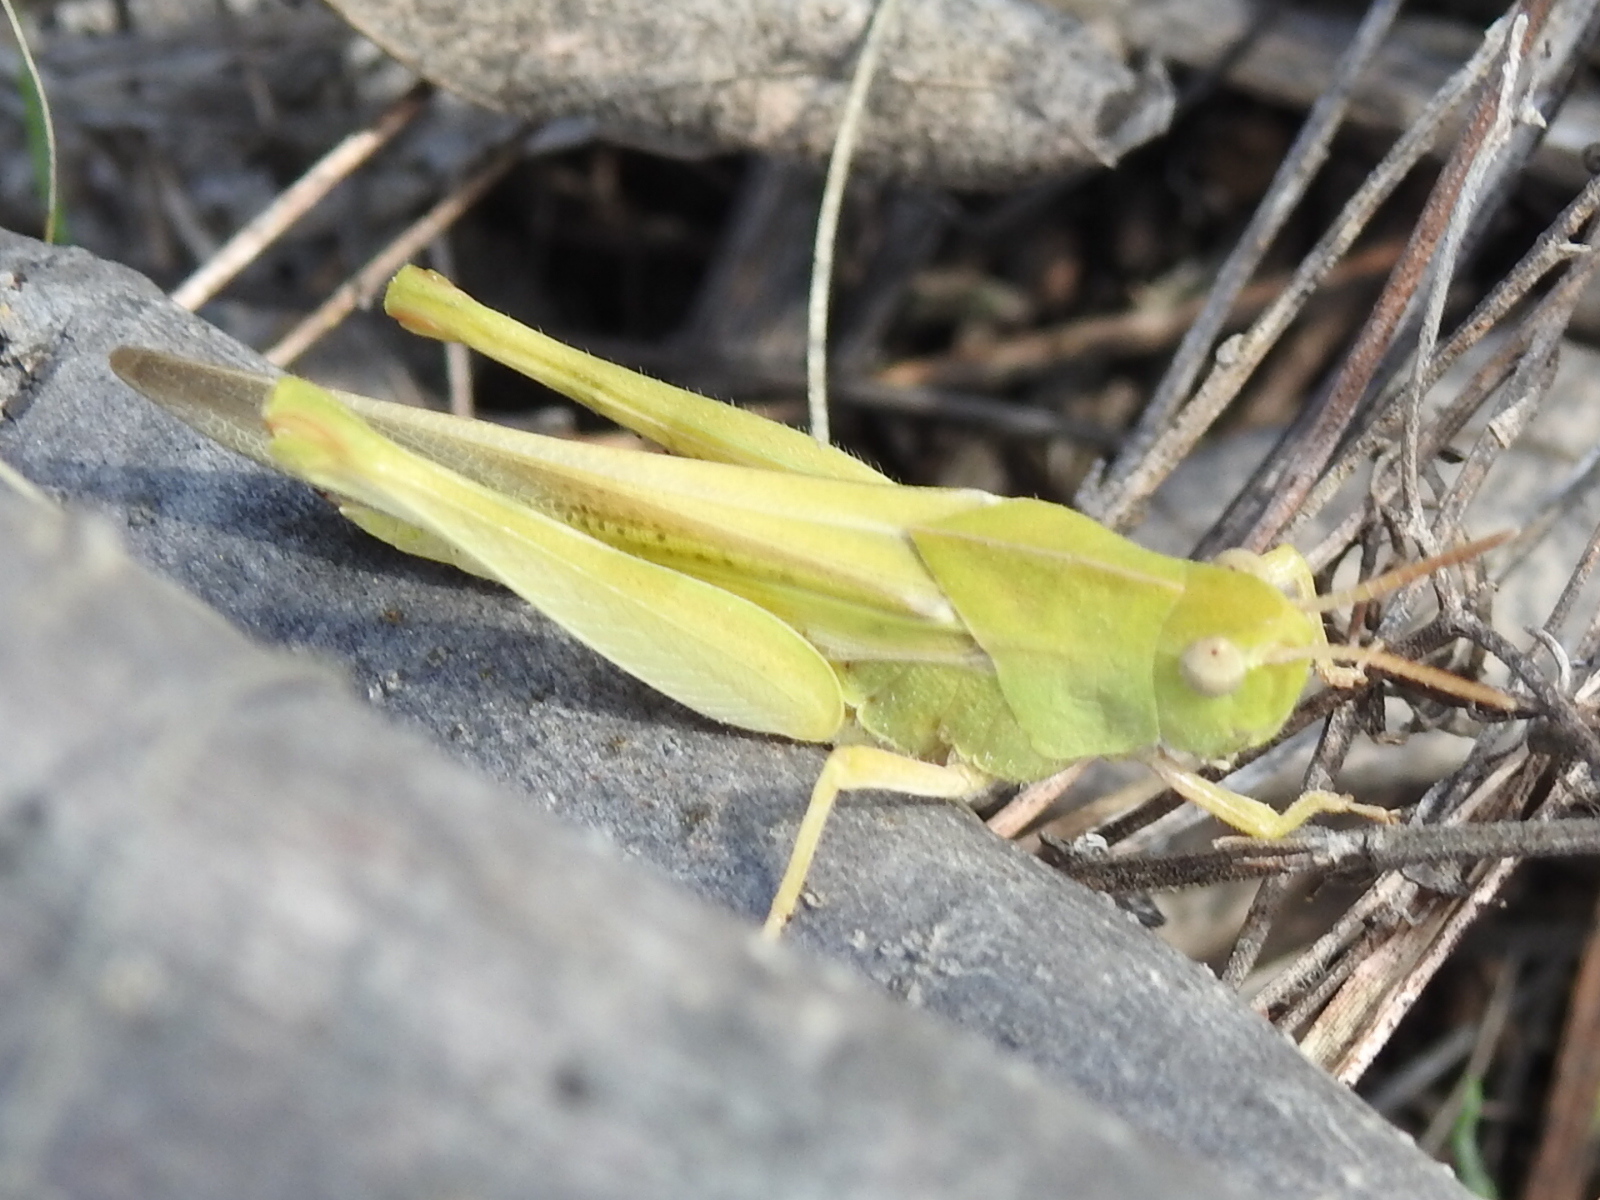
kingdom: Animalia
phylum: Arthropoda
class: Insecta
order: Orthoptera
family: Acrididae
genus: Chortophaga
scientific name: Chortophaga viridifasciata
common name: Green-striped grasshopper
